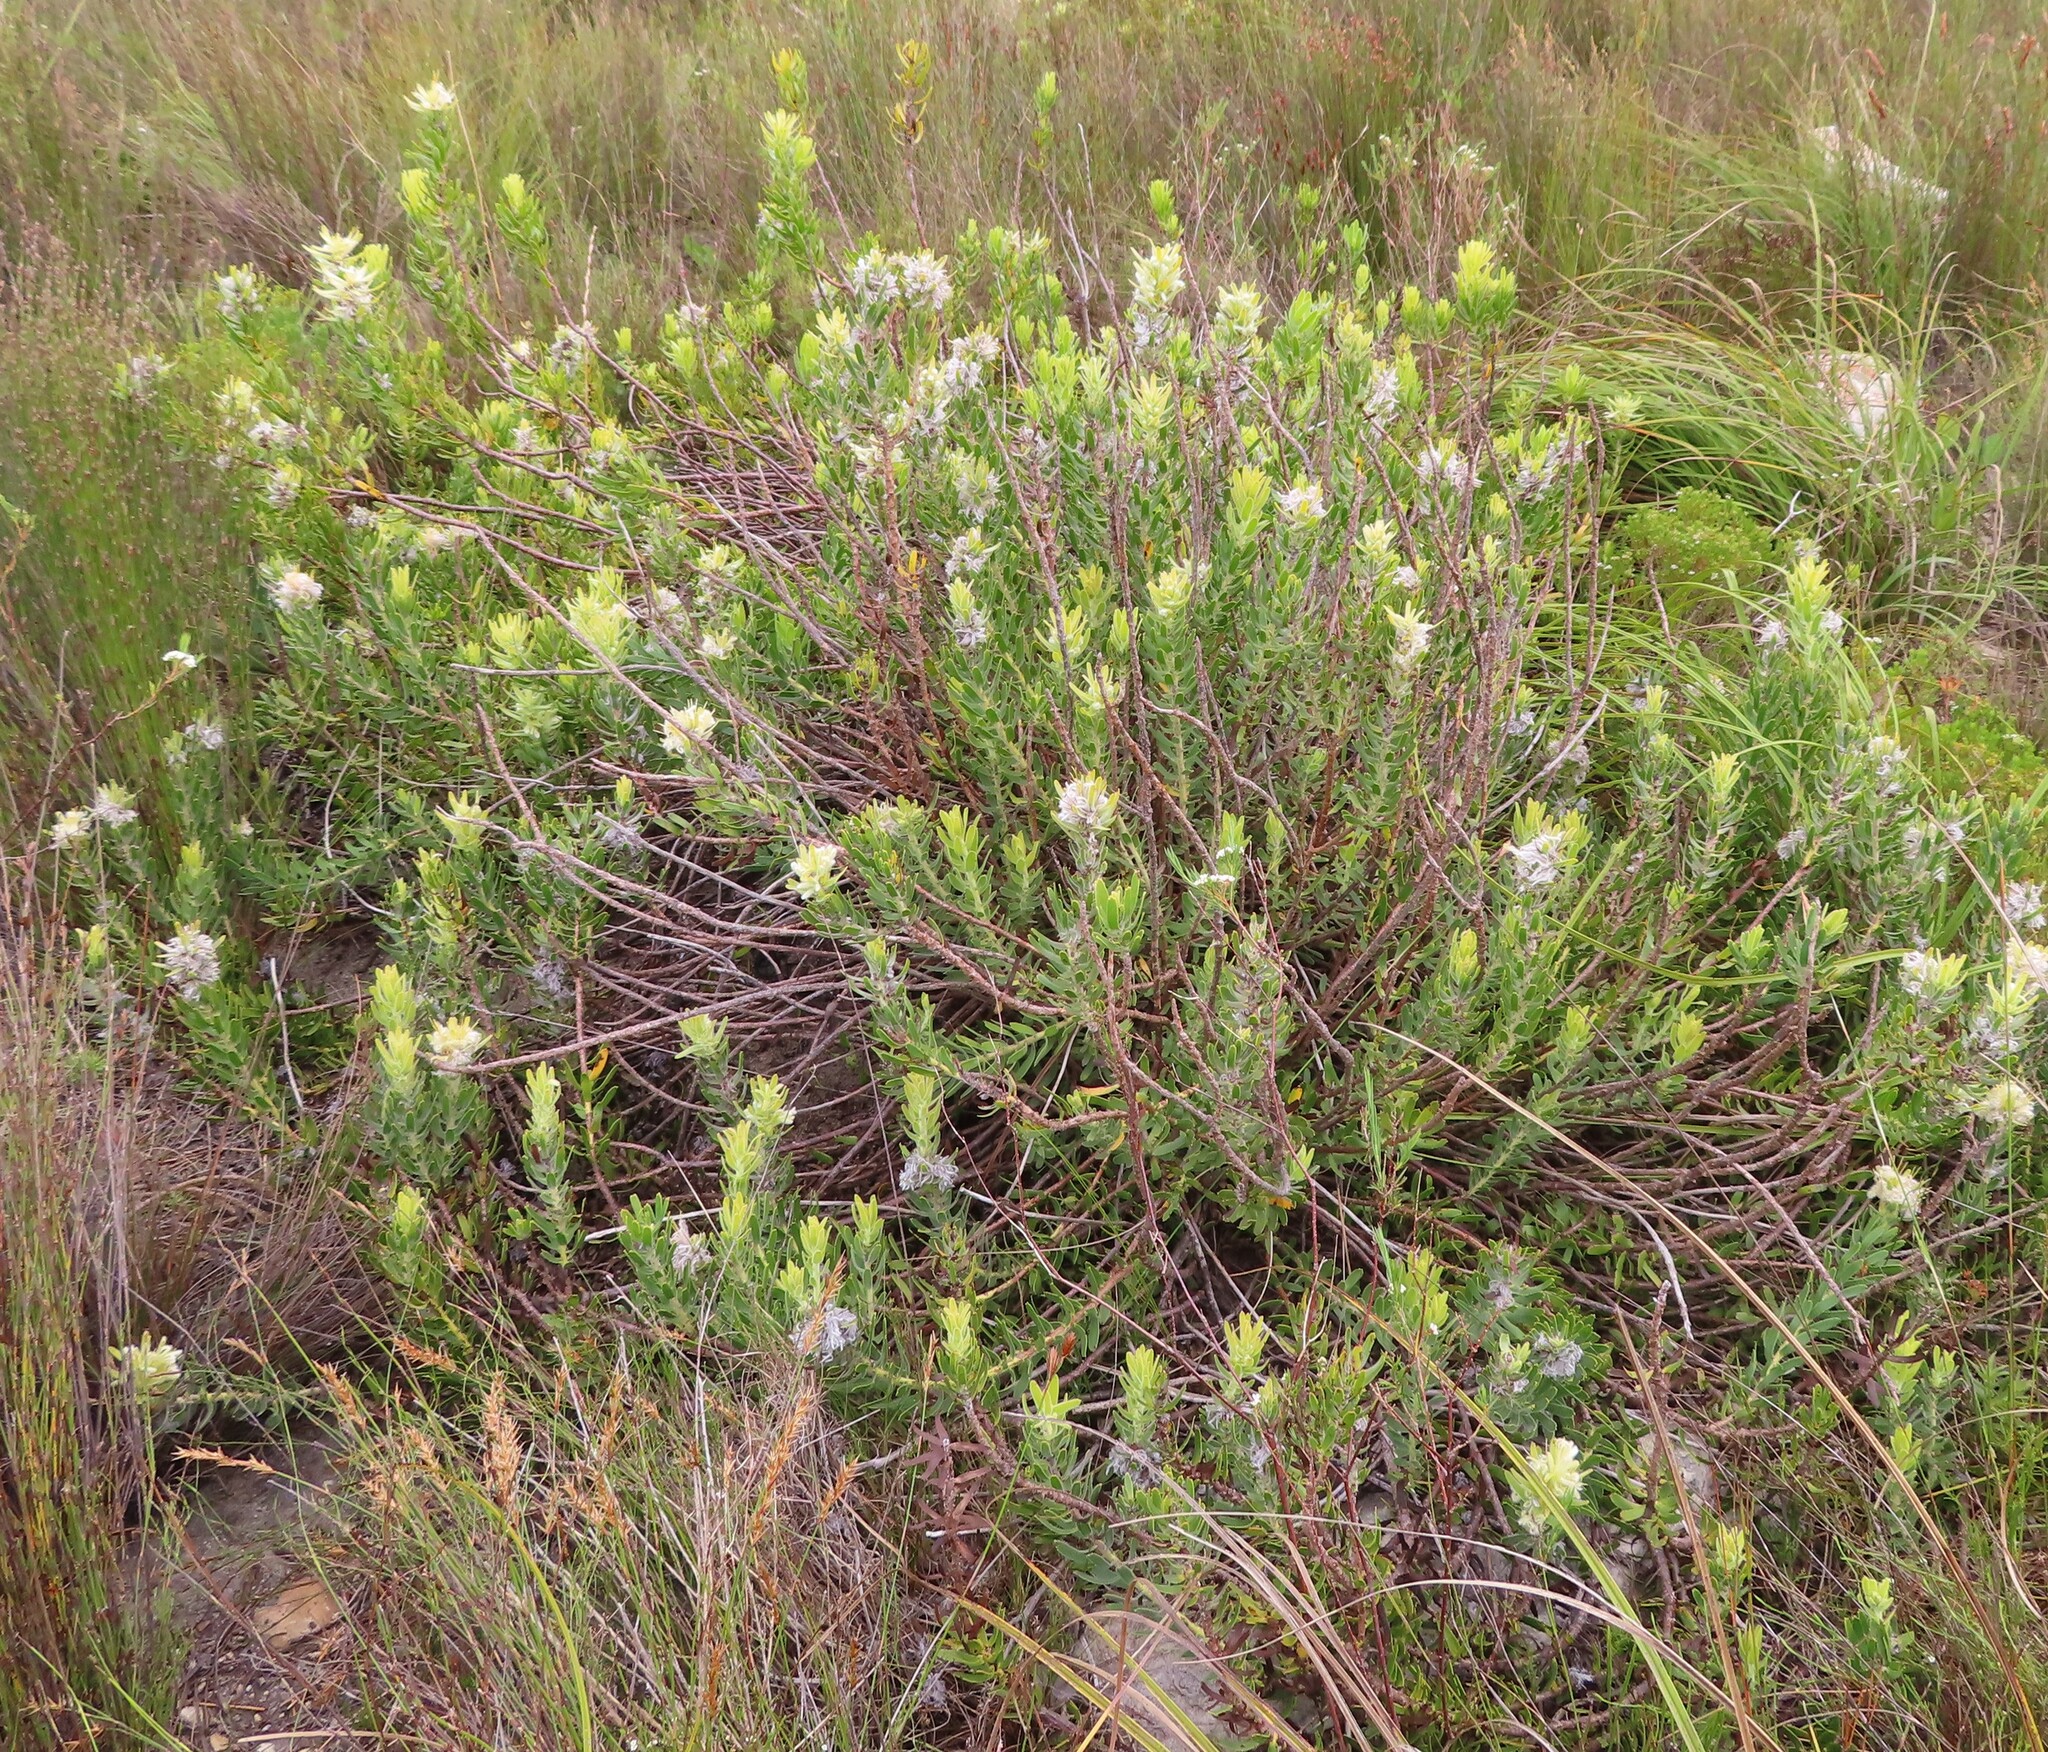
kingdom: Plantae
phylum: Tracheophyta
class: Magnoliopsida
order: Proteales
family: Proteaceae
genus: Mimetes
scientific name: Mimetes cucullatus
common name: Common pagoda
